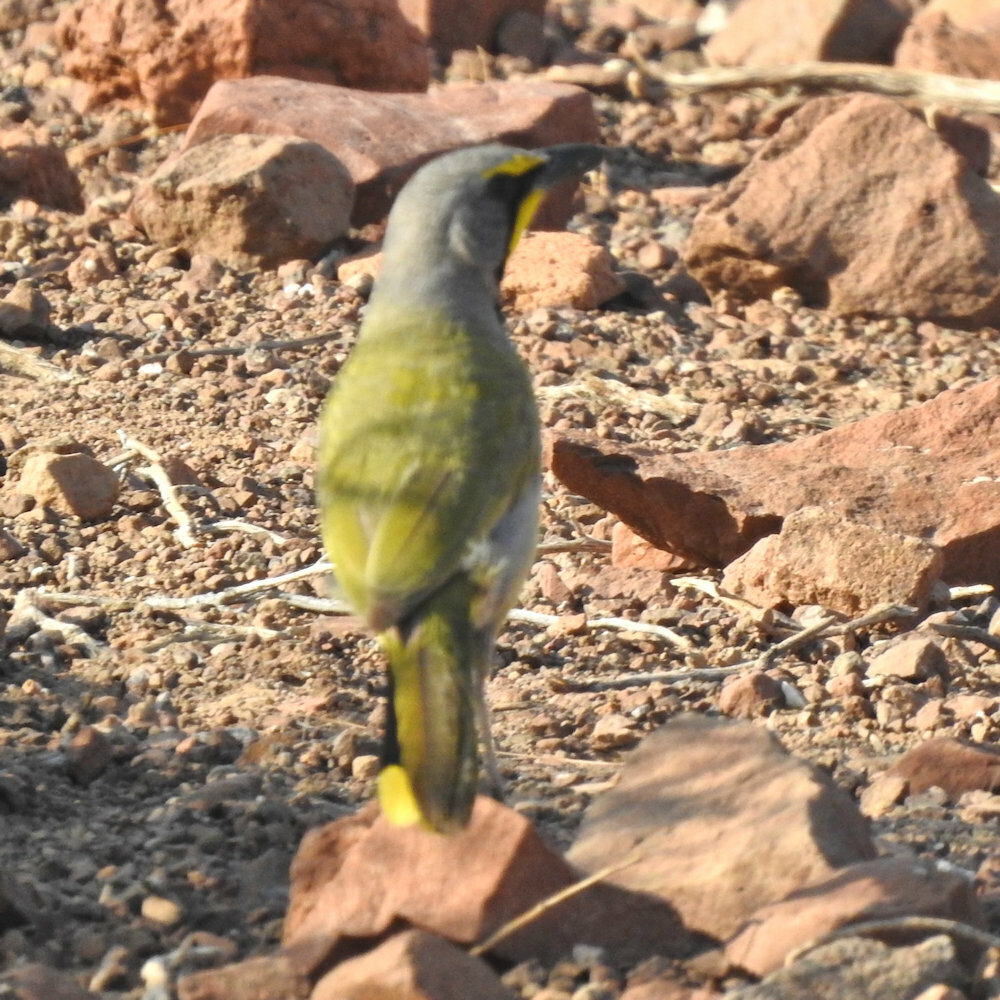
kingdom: Animalia
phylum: Chordata
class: Aves
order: Passeriformes
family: Malaconotidae
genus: Telophorus
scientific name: Telophorus zeylonus
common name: Bokmakierie
